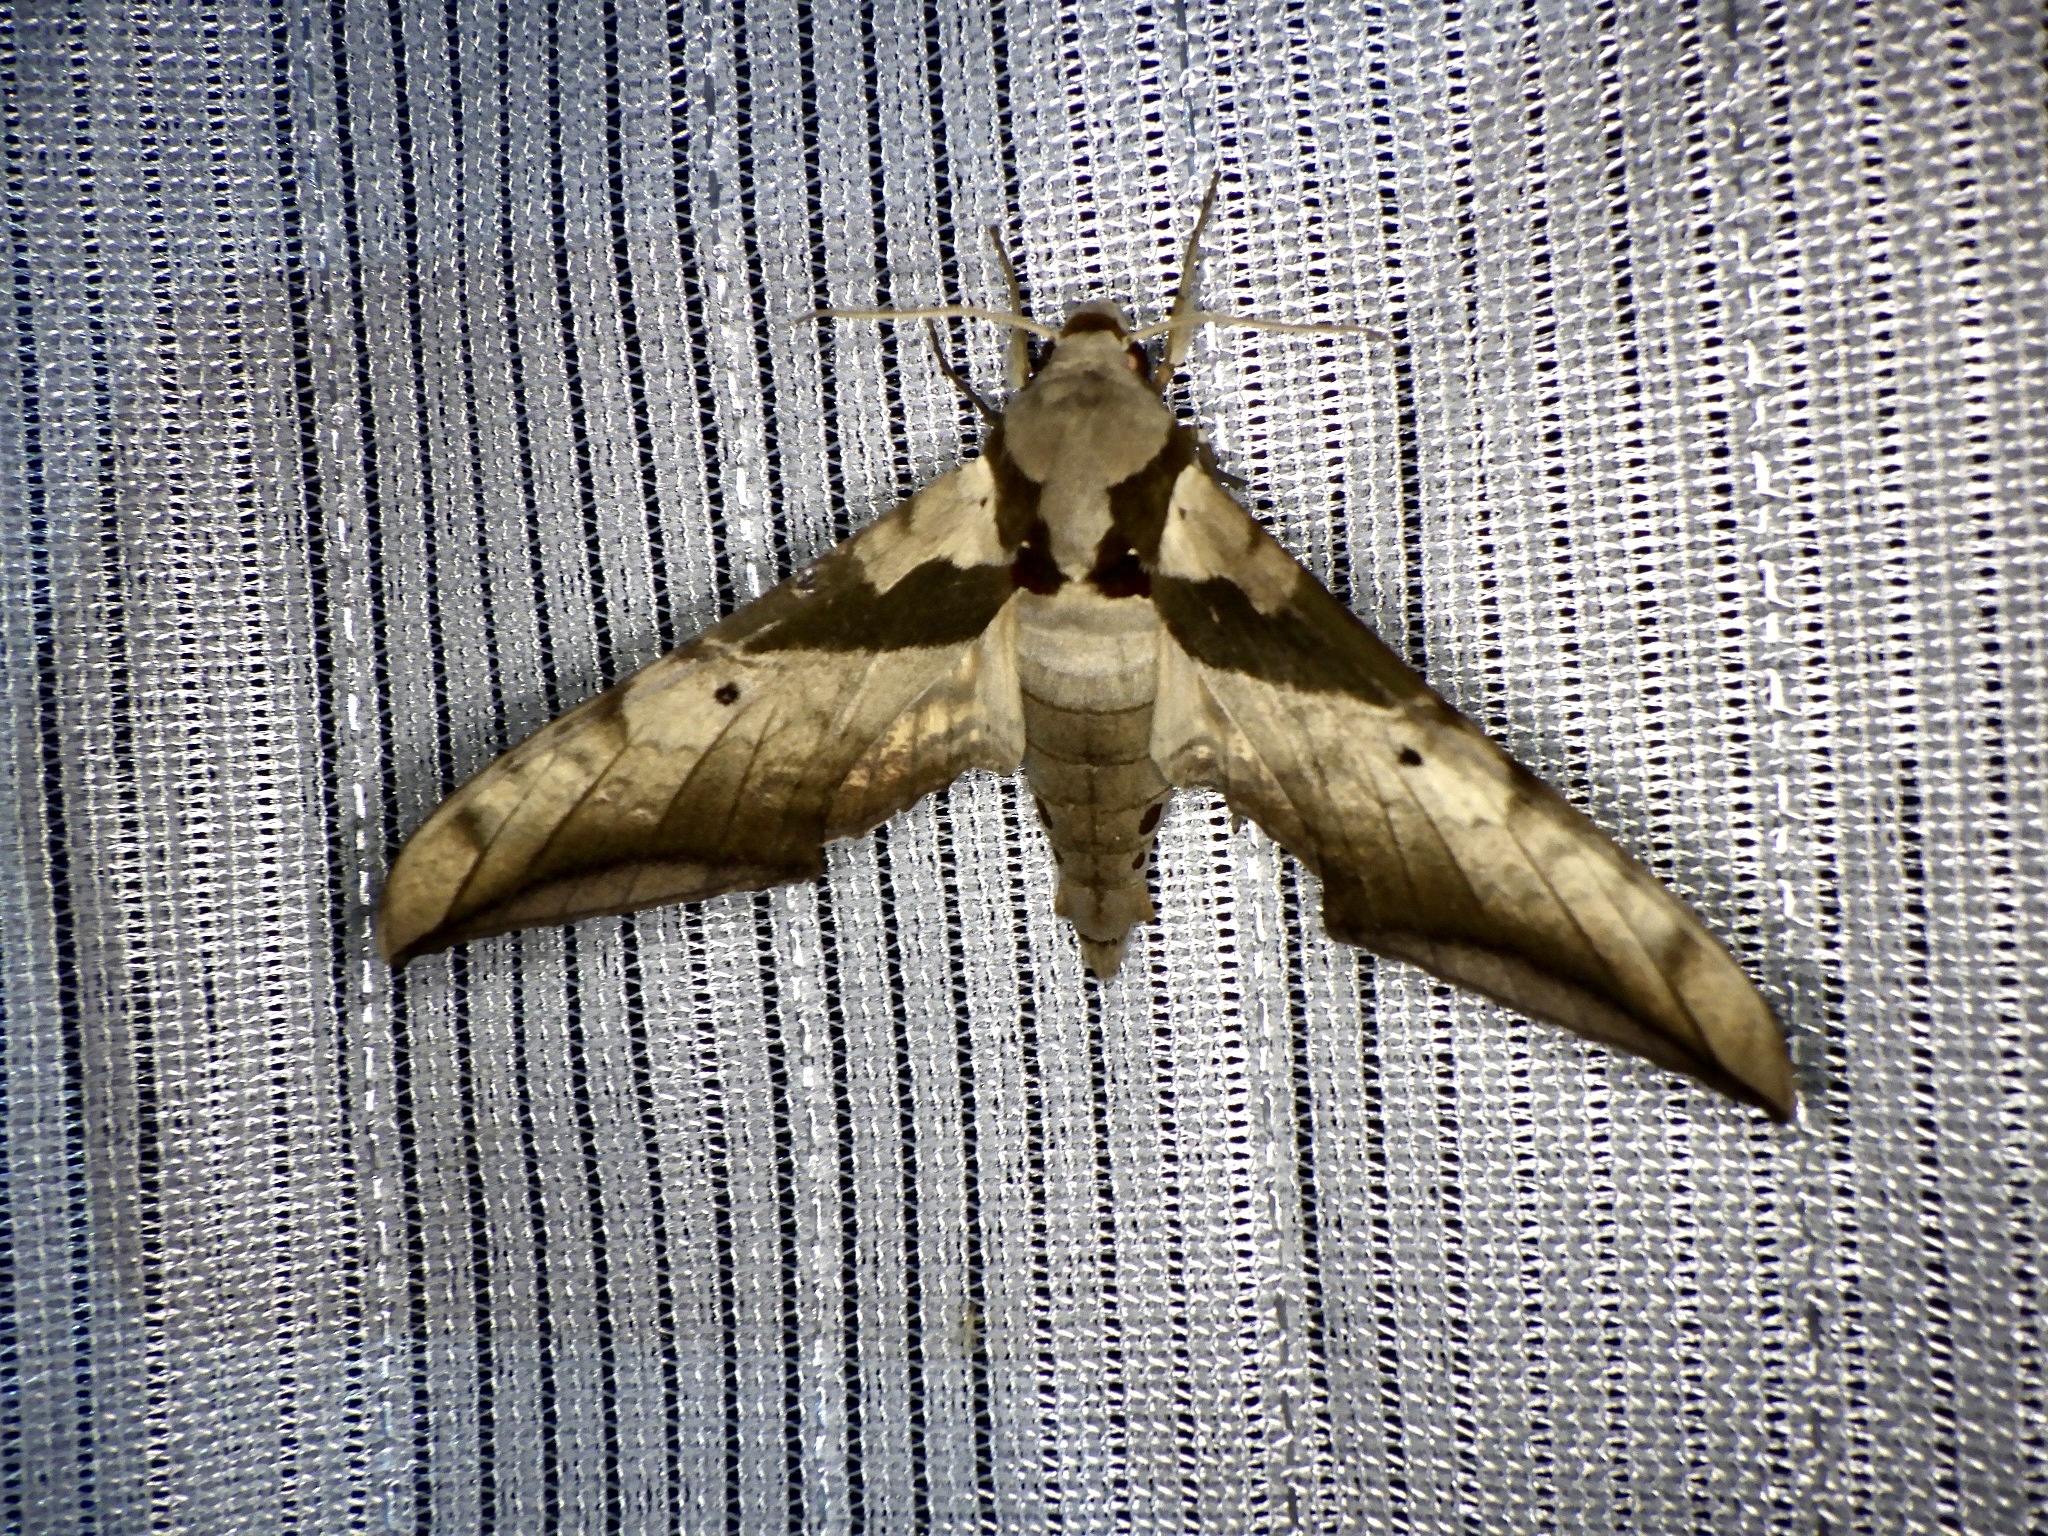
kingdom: Animalia
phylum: Arthropoda
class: Insecta
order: Lepidoptera
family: Sphingidae
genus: Ambulyx
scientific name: Ambulyx japonica
